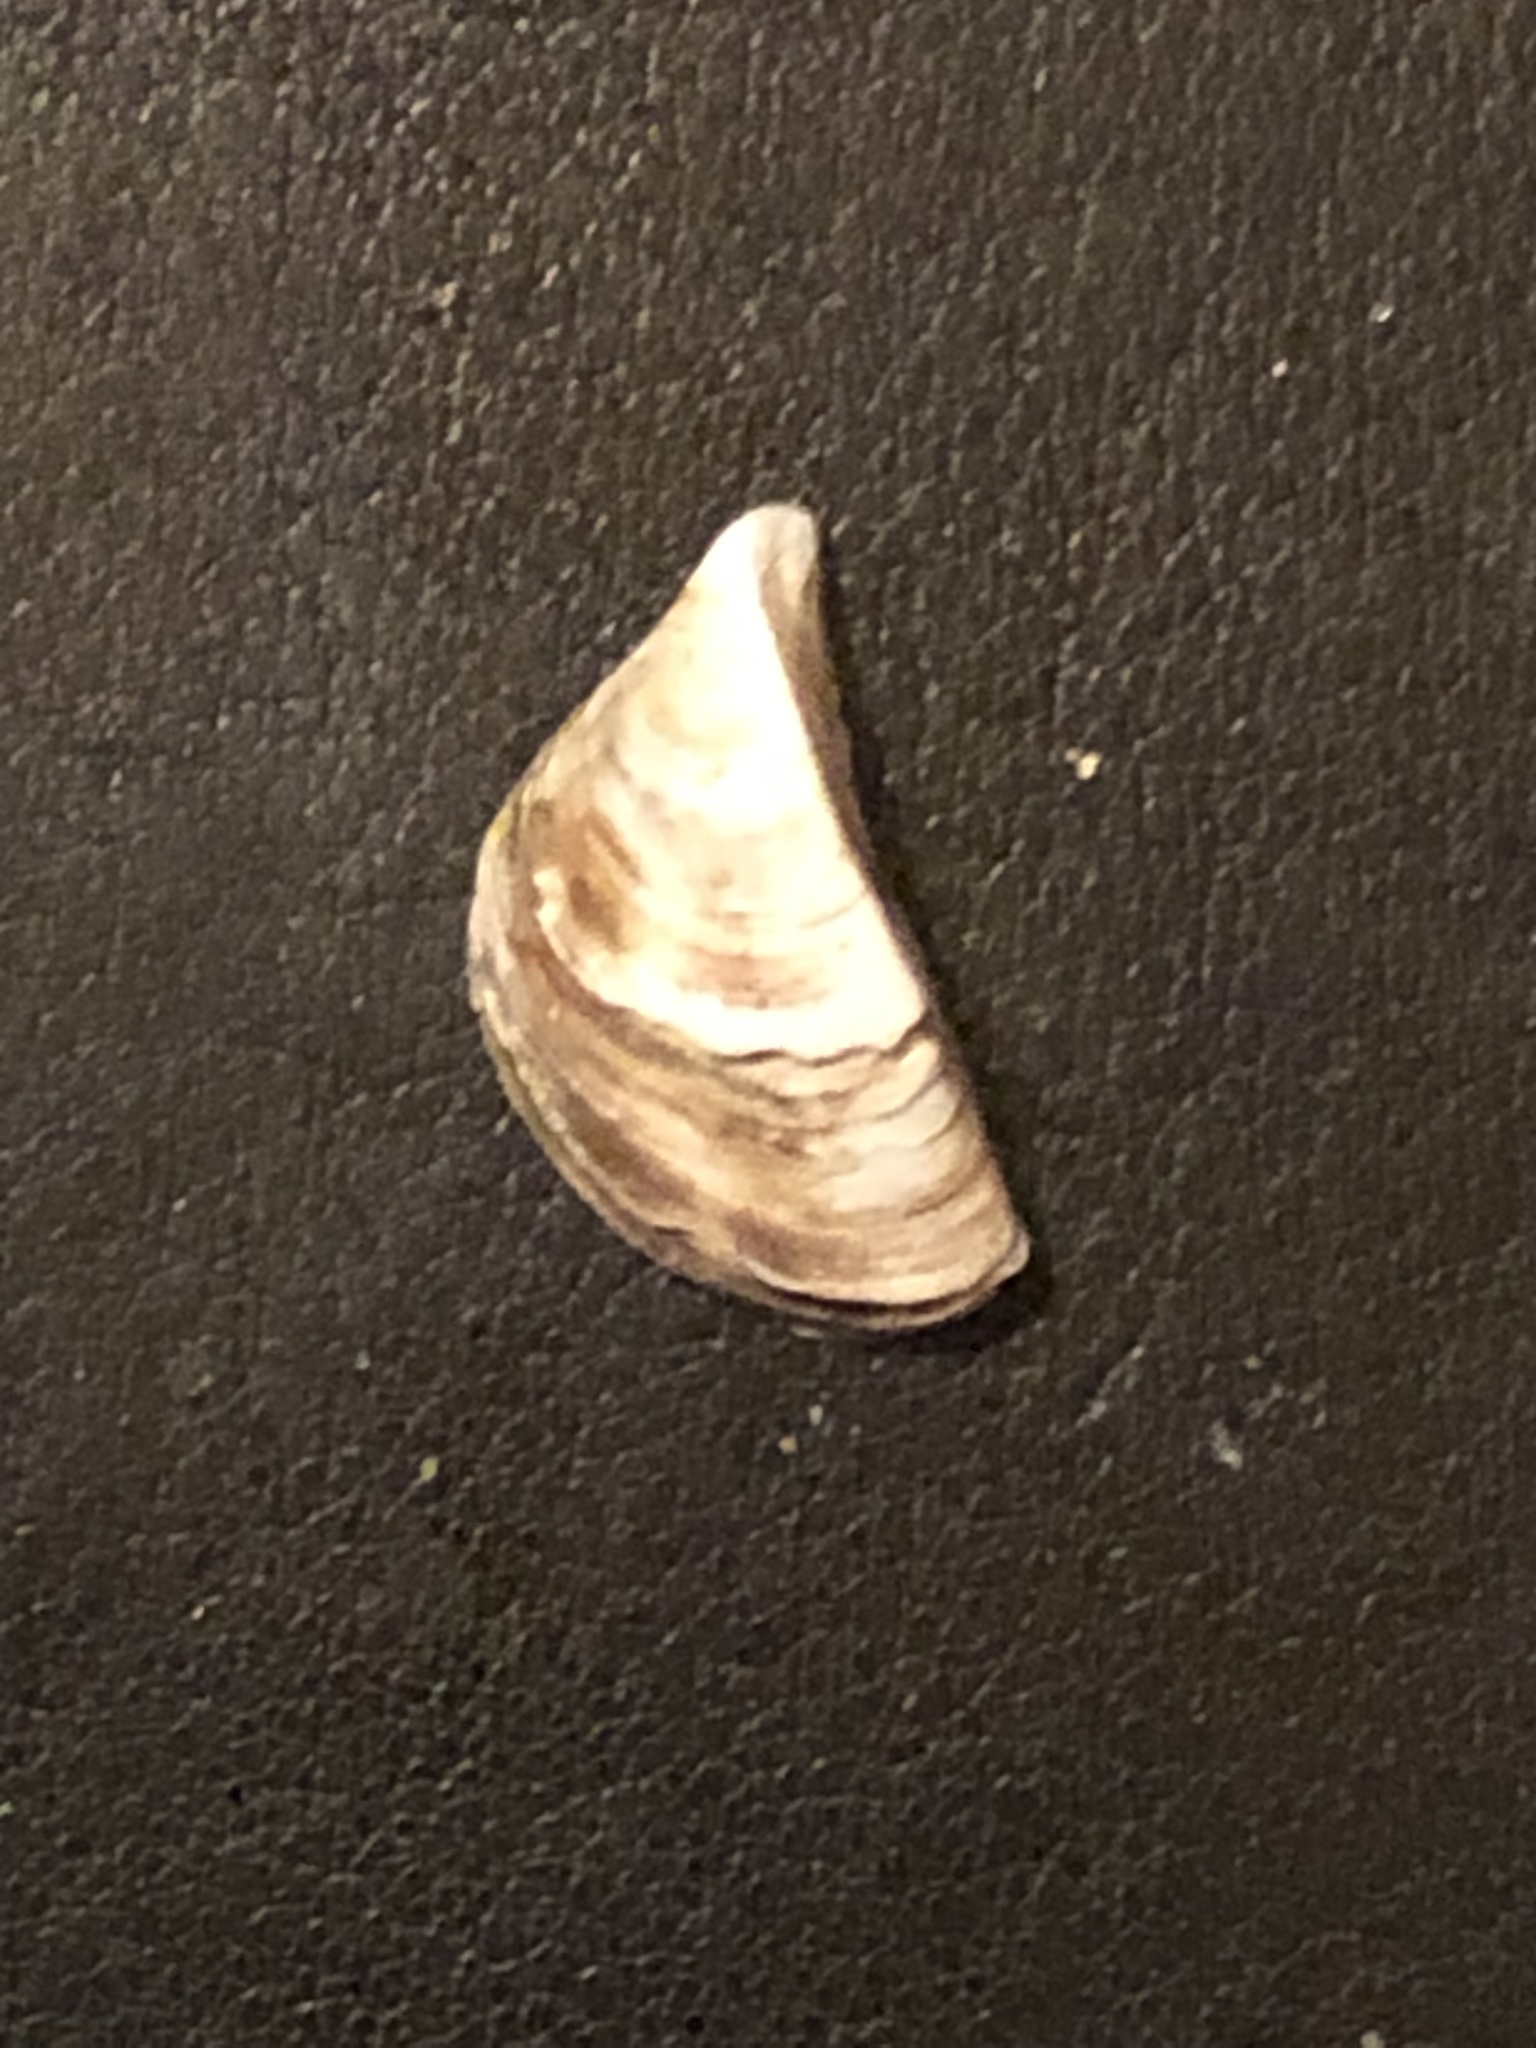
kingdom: Animalia
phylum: Mollusca
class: Bivalvia
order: Myida
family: Dreissenidae
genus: Dreissena
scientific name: Dreissena polymorpha
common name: Zebra mussel
